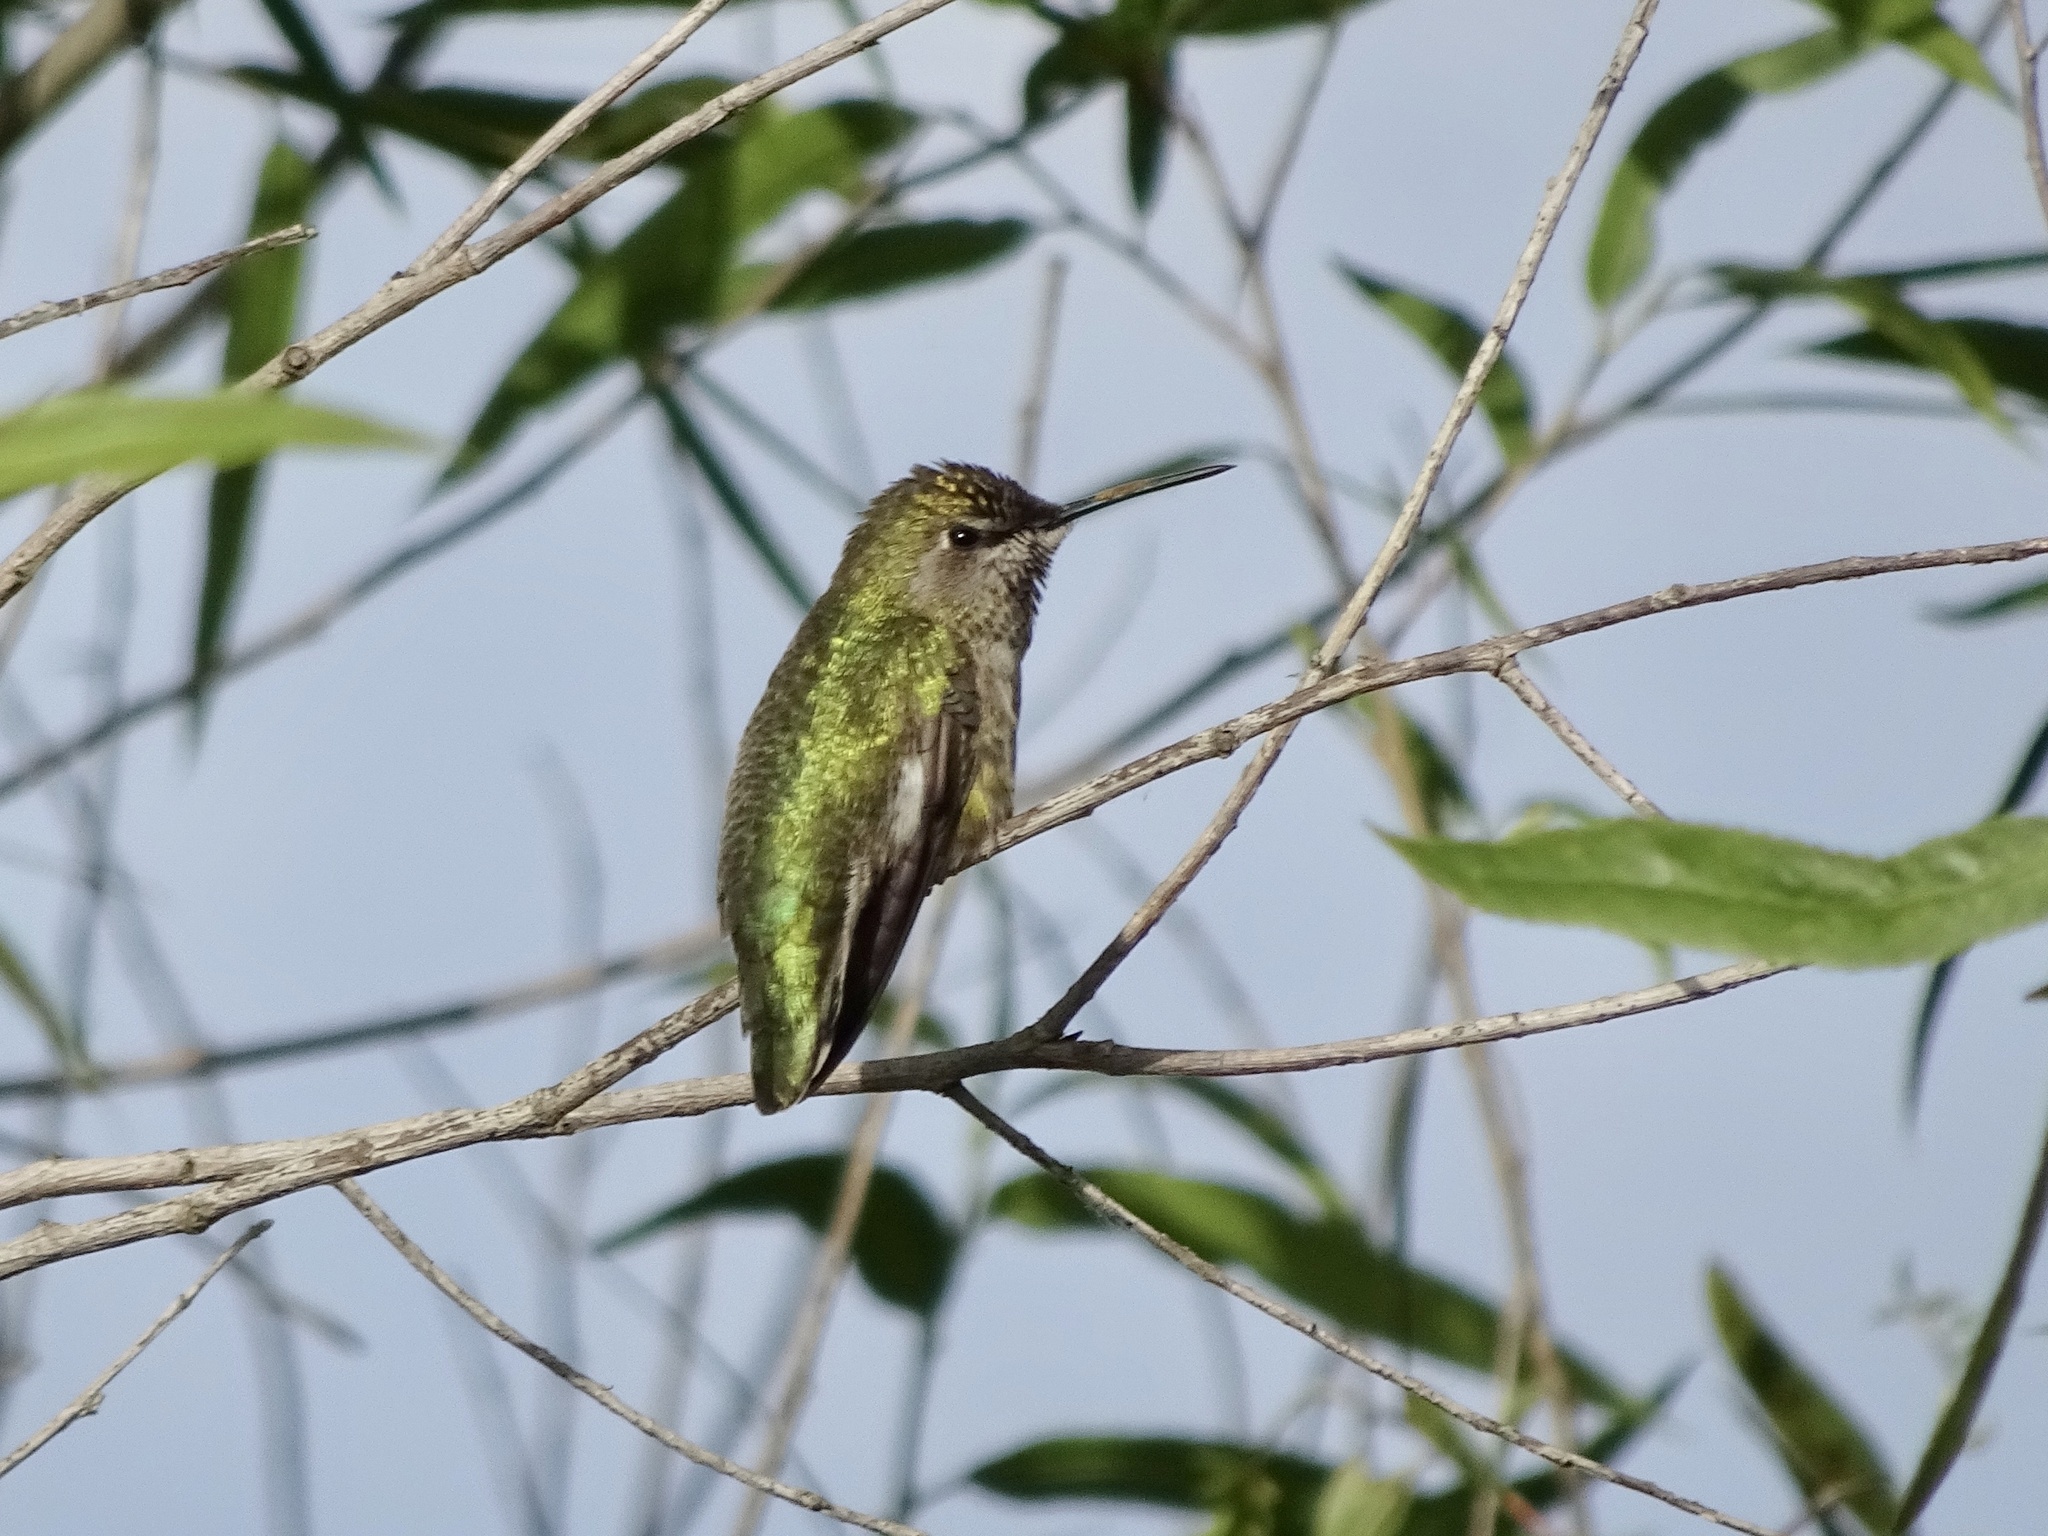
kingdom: Animalia
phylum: Chordata
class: Aves
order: Apodiformes
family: Trochilidae
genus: Calypte
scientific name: Calypte anna
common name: Anna's hummingbird
